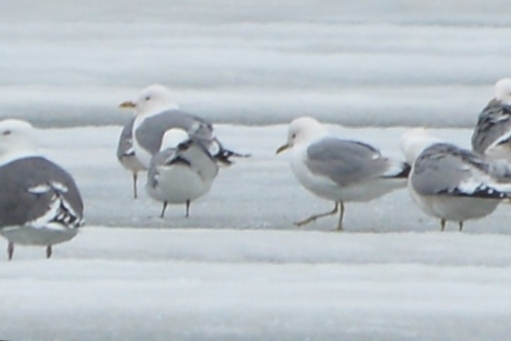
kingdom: Animalia
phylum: Chordata
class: Aves
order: Charadriiformes
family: Laridae
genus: Larus
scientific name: Larus canus
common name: Mew gull
